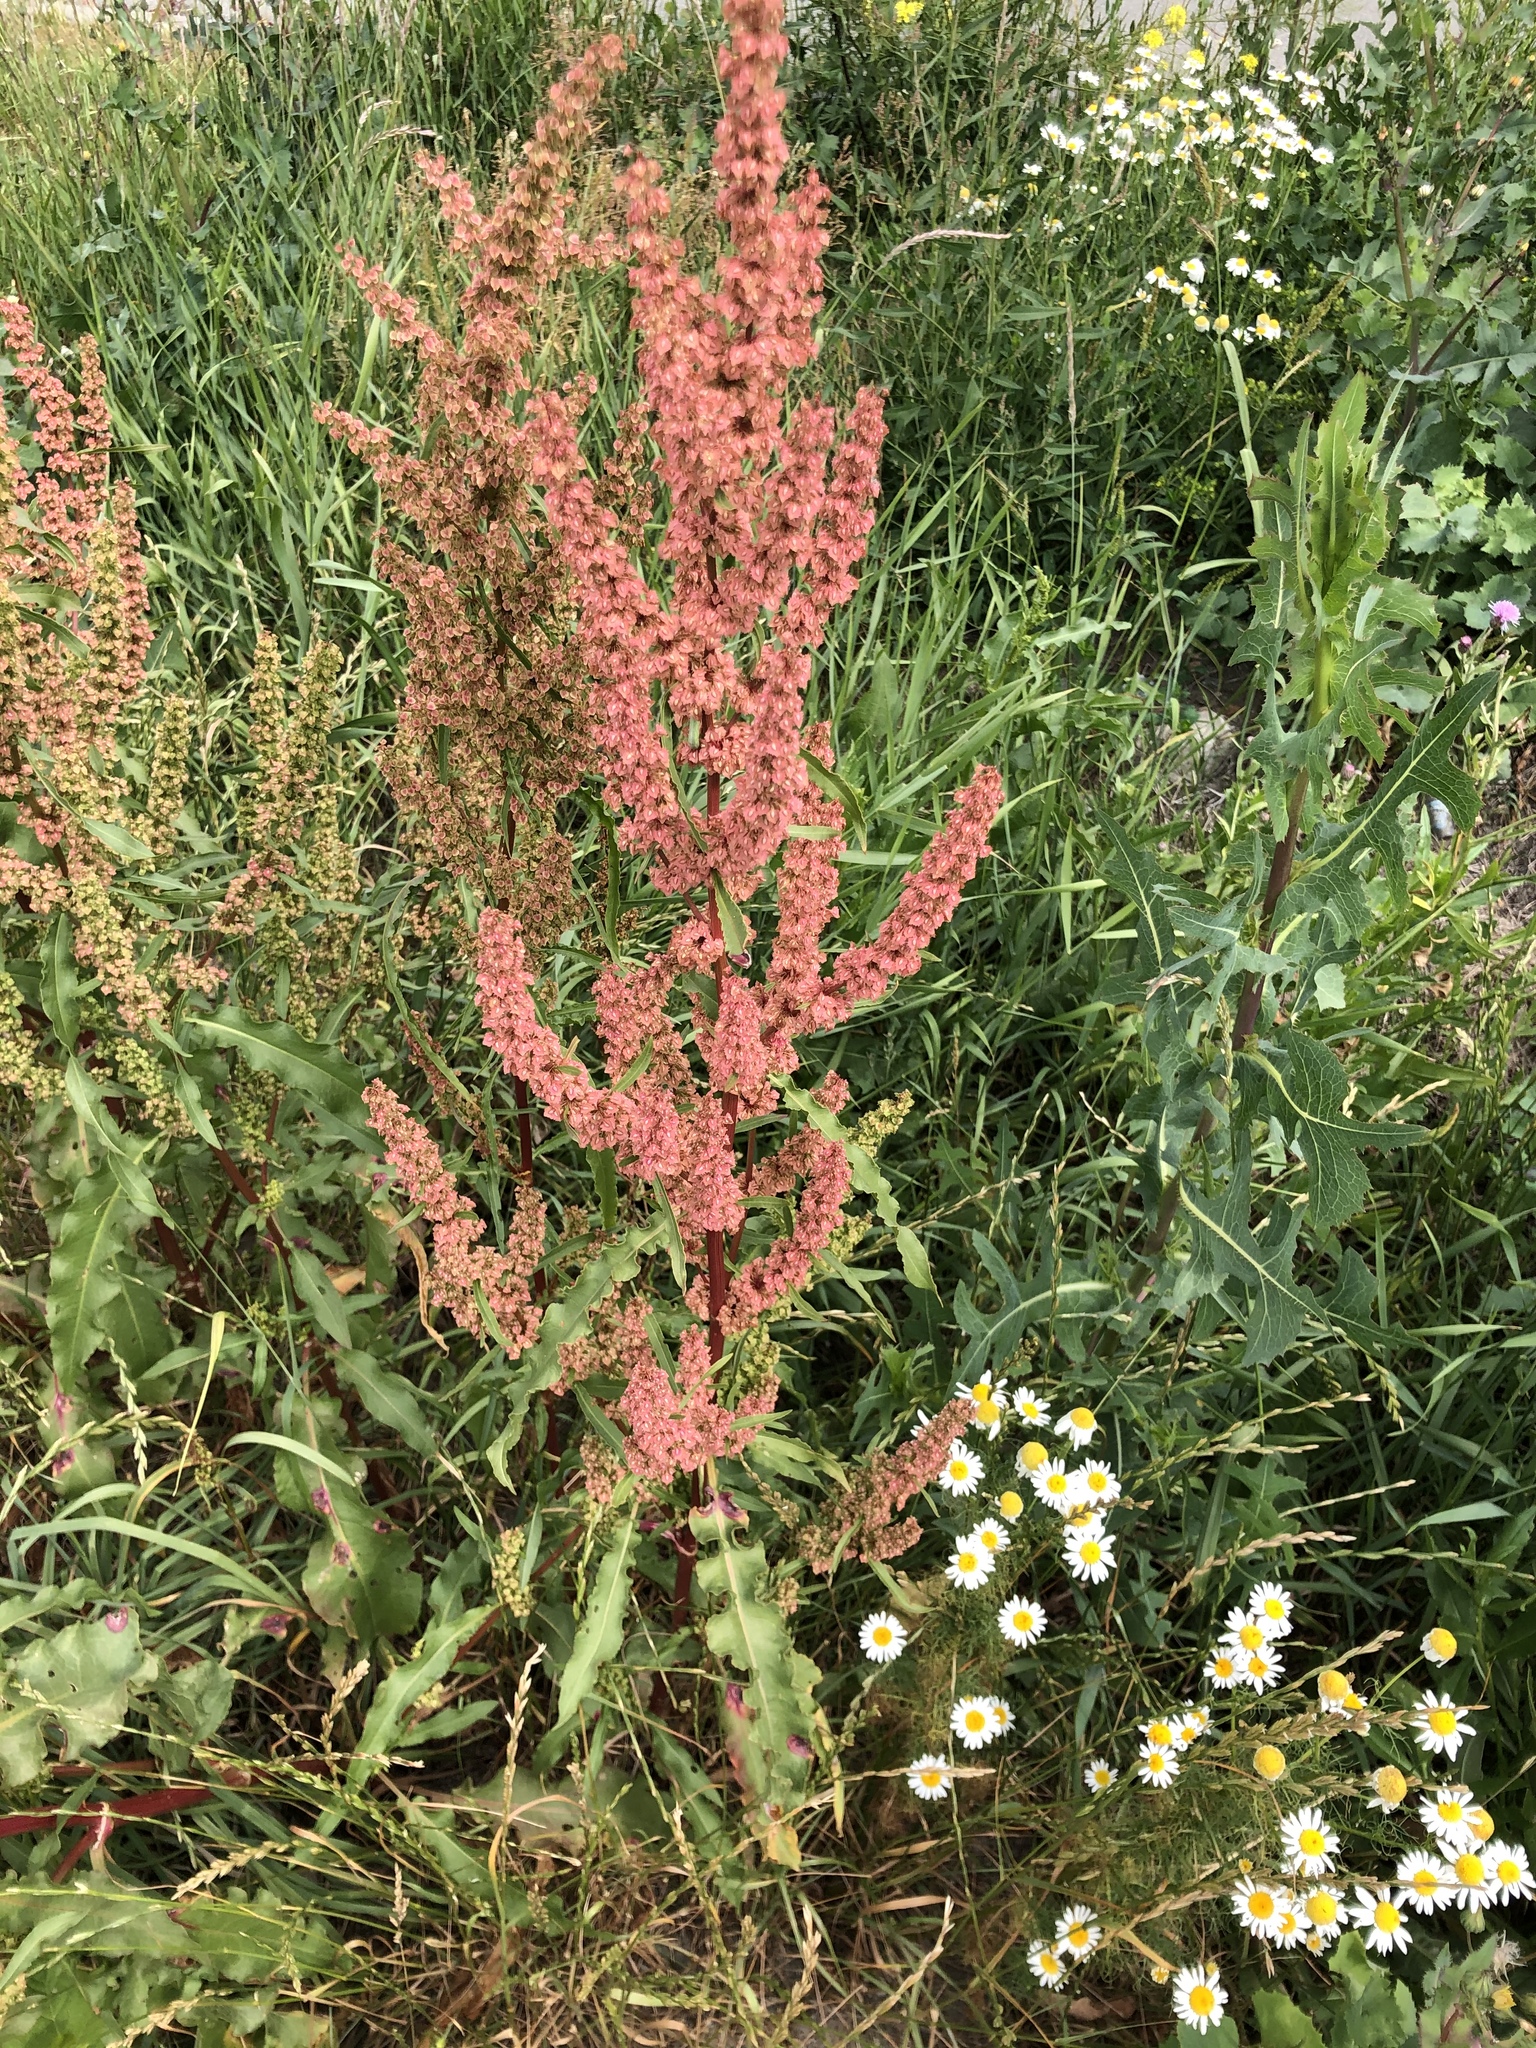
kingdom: Plantae
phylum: Tracheophyta
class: Magnoliopsida
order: Caryophyllales
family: Polygonaceae
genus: Rumex
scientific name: Rumex stenophyllus
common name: Narrowleaf dock
